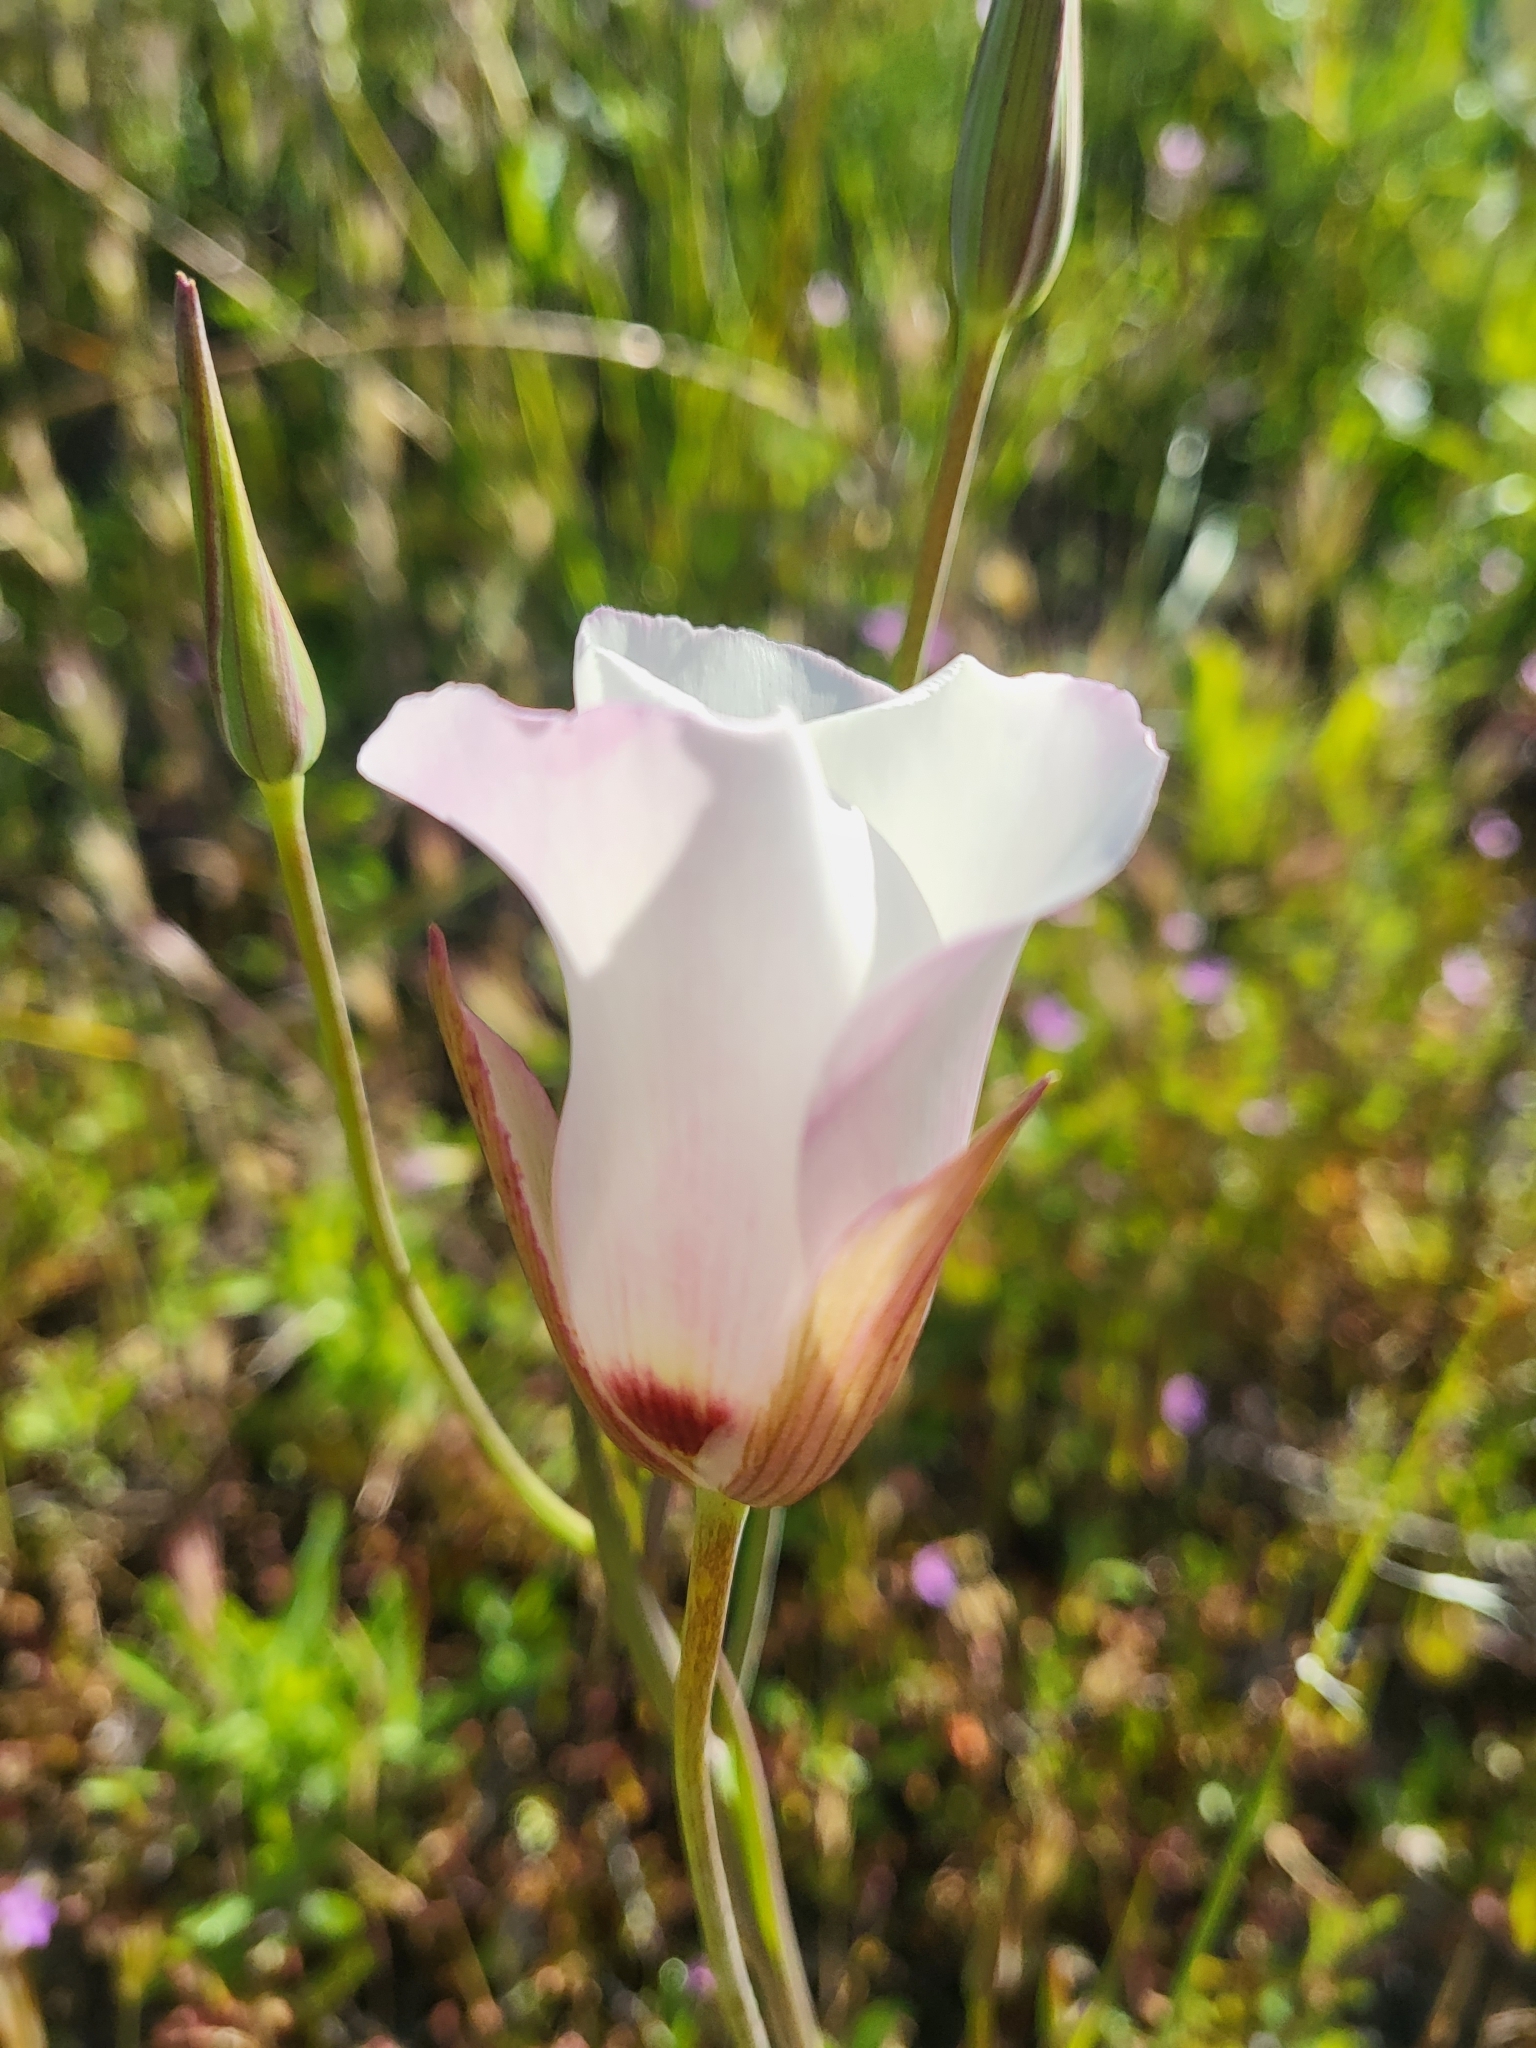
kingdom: Plantae
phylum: Tracheophyta
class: Liliopsida
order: Liliales
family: Liliaceae
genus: Calochortus
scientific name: Calochortus catalinae
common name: Catalina mariposa-lily
